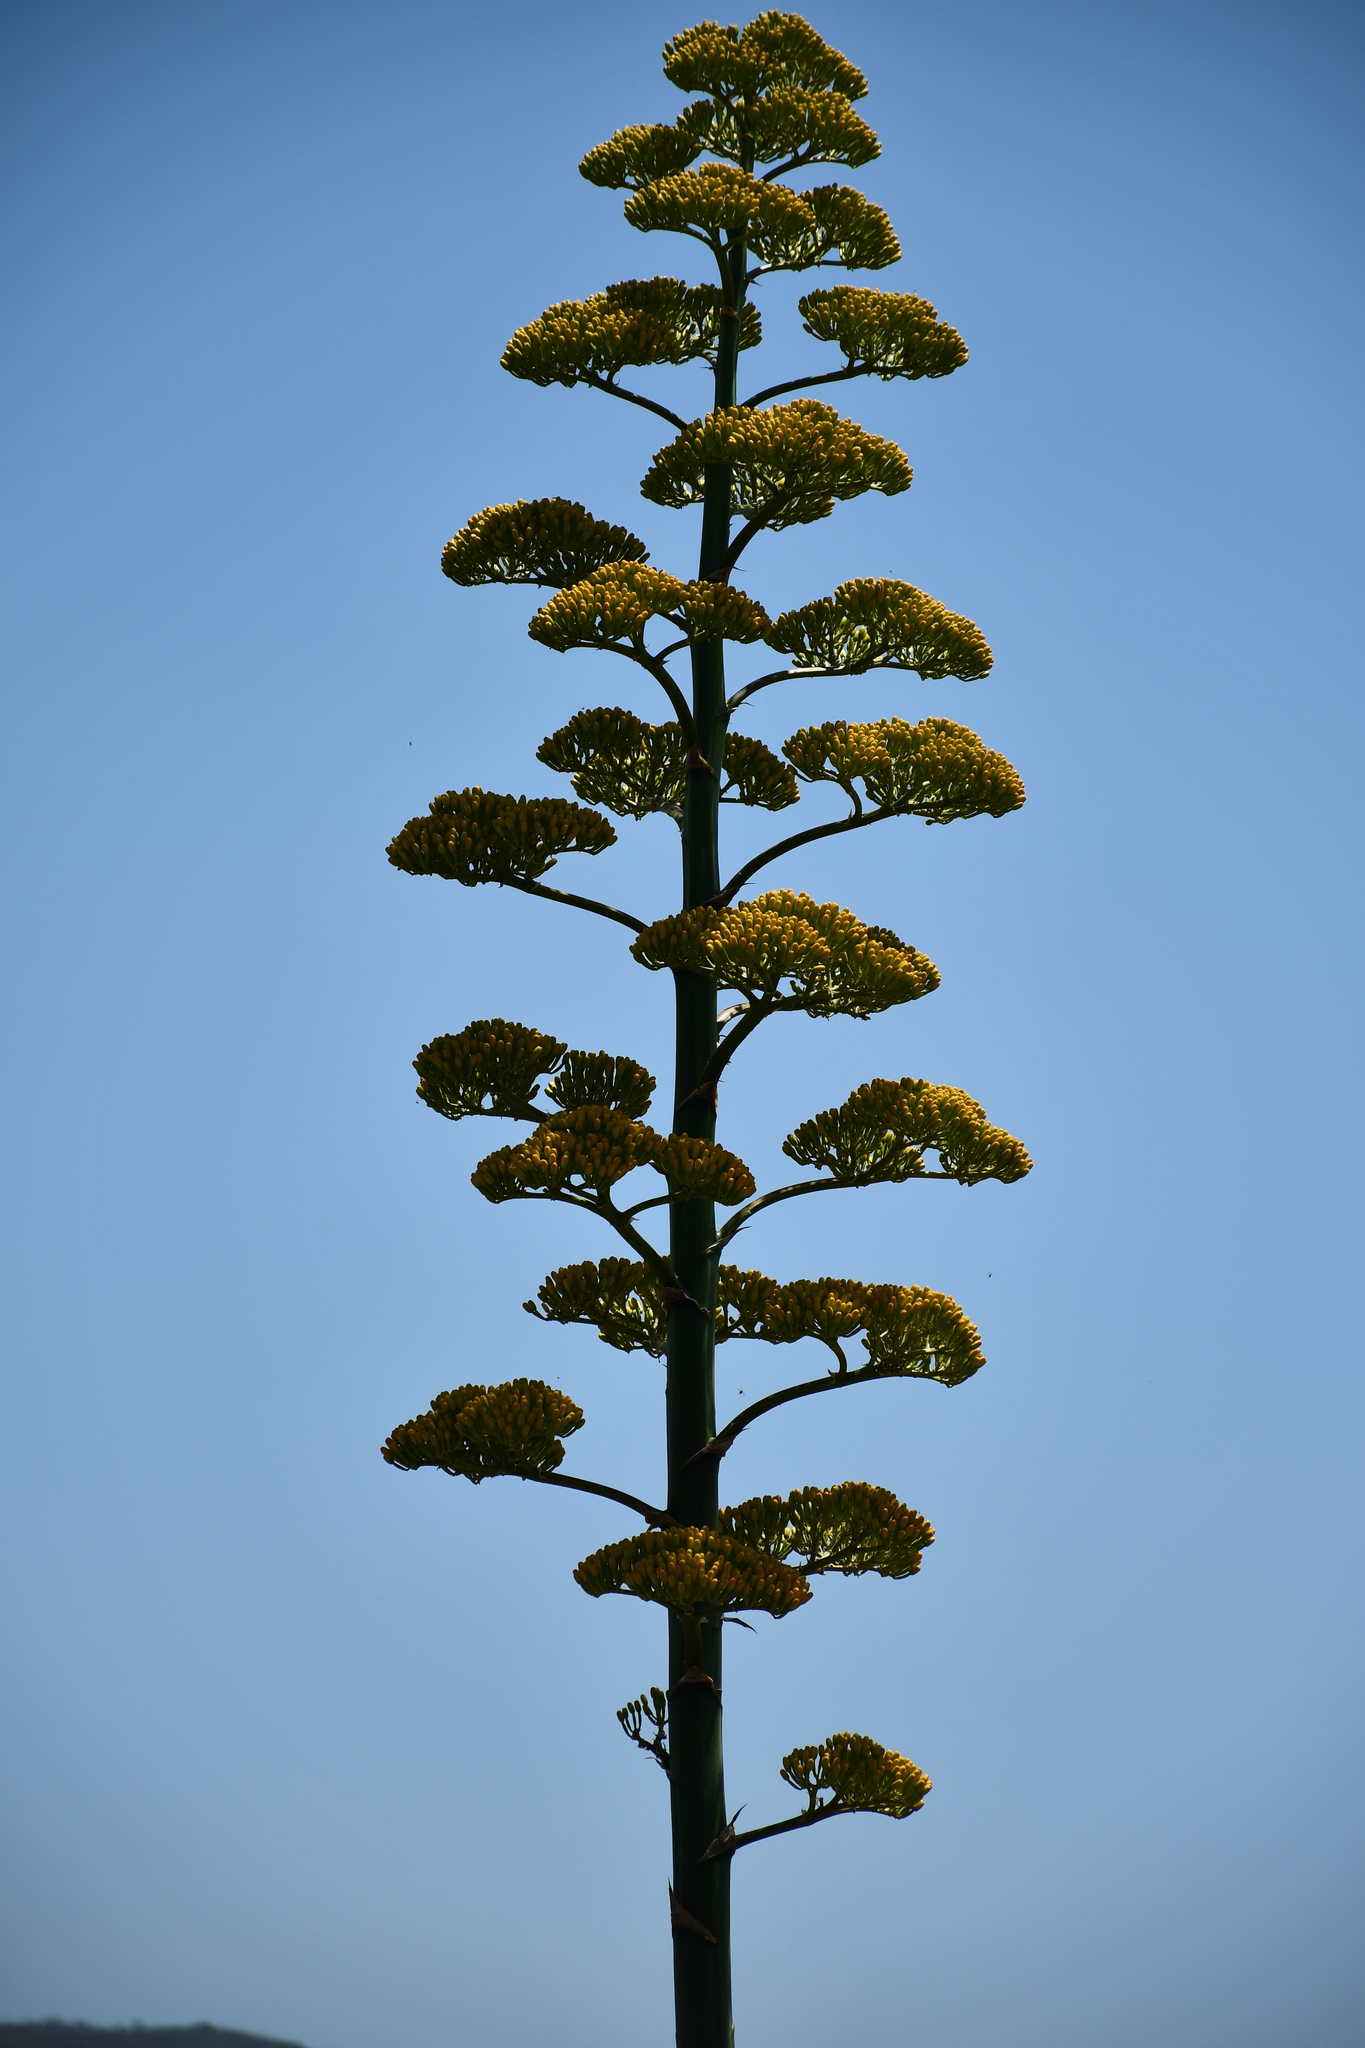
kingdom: Plantae
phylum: Tracheophyta
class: Liliopsida
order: Asparagales
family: Asparagaceae
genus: Agave
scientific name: Agave marmorata
